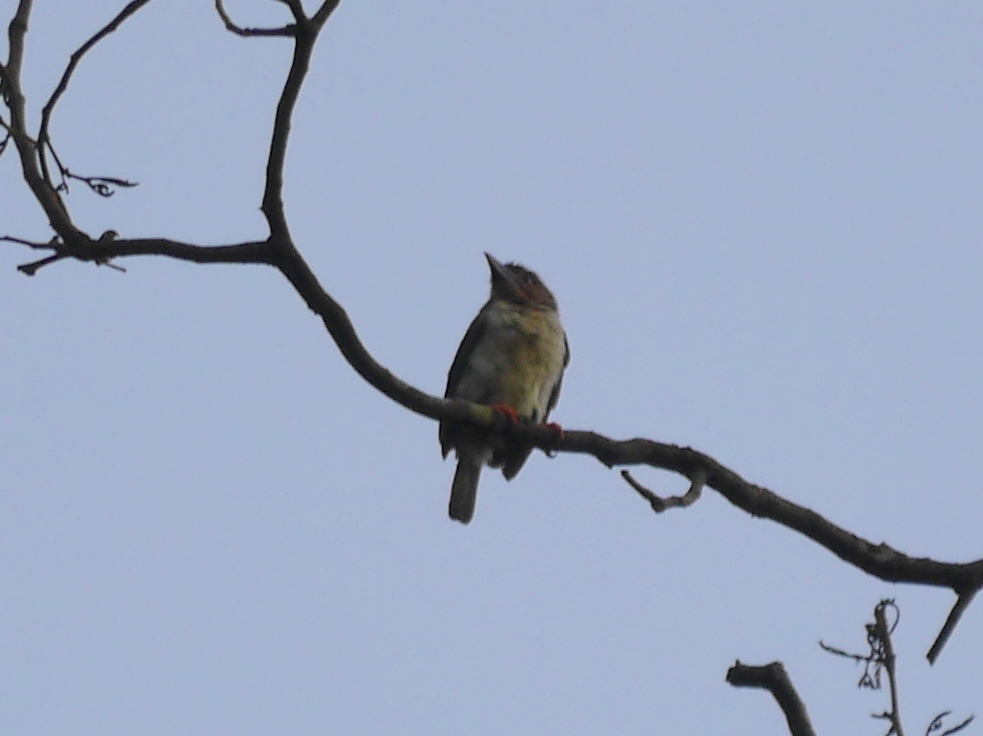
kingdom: Animalia
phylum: Chordata
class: Aves
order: Piciformes
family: Megalaimidae
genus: Caloramphus
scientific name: Caloramphus hayii
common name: Sooty barbet
